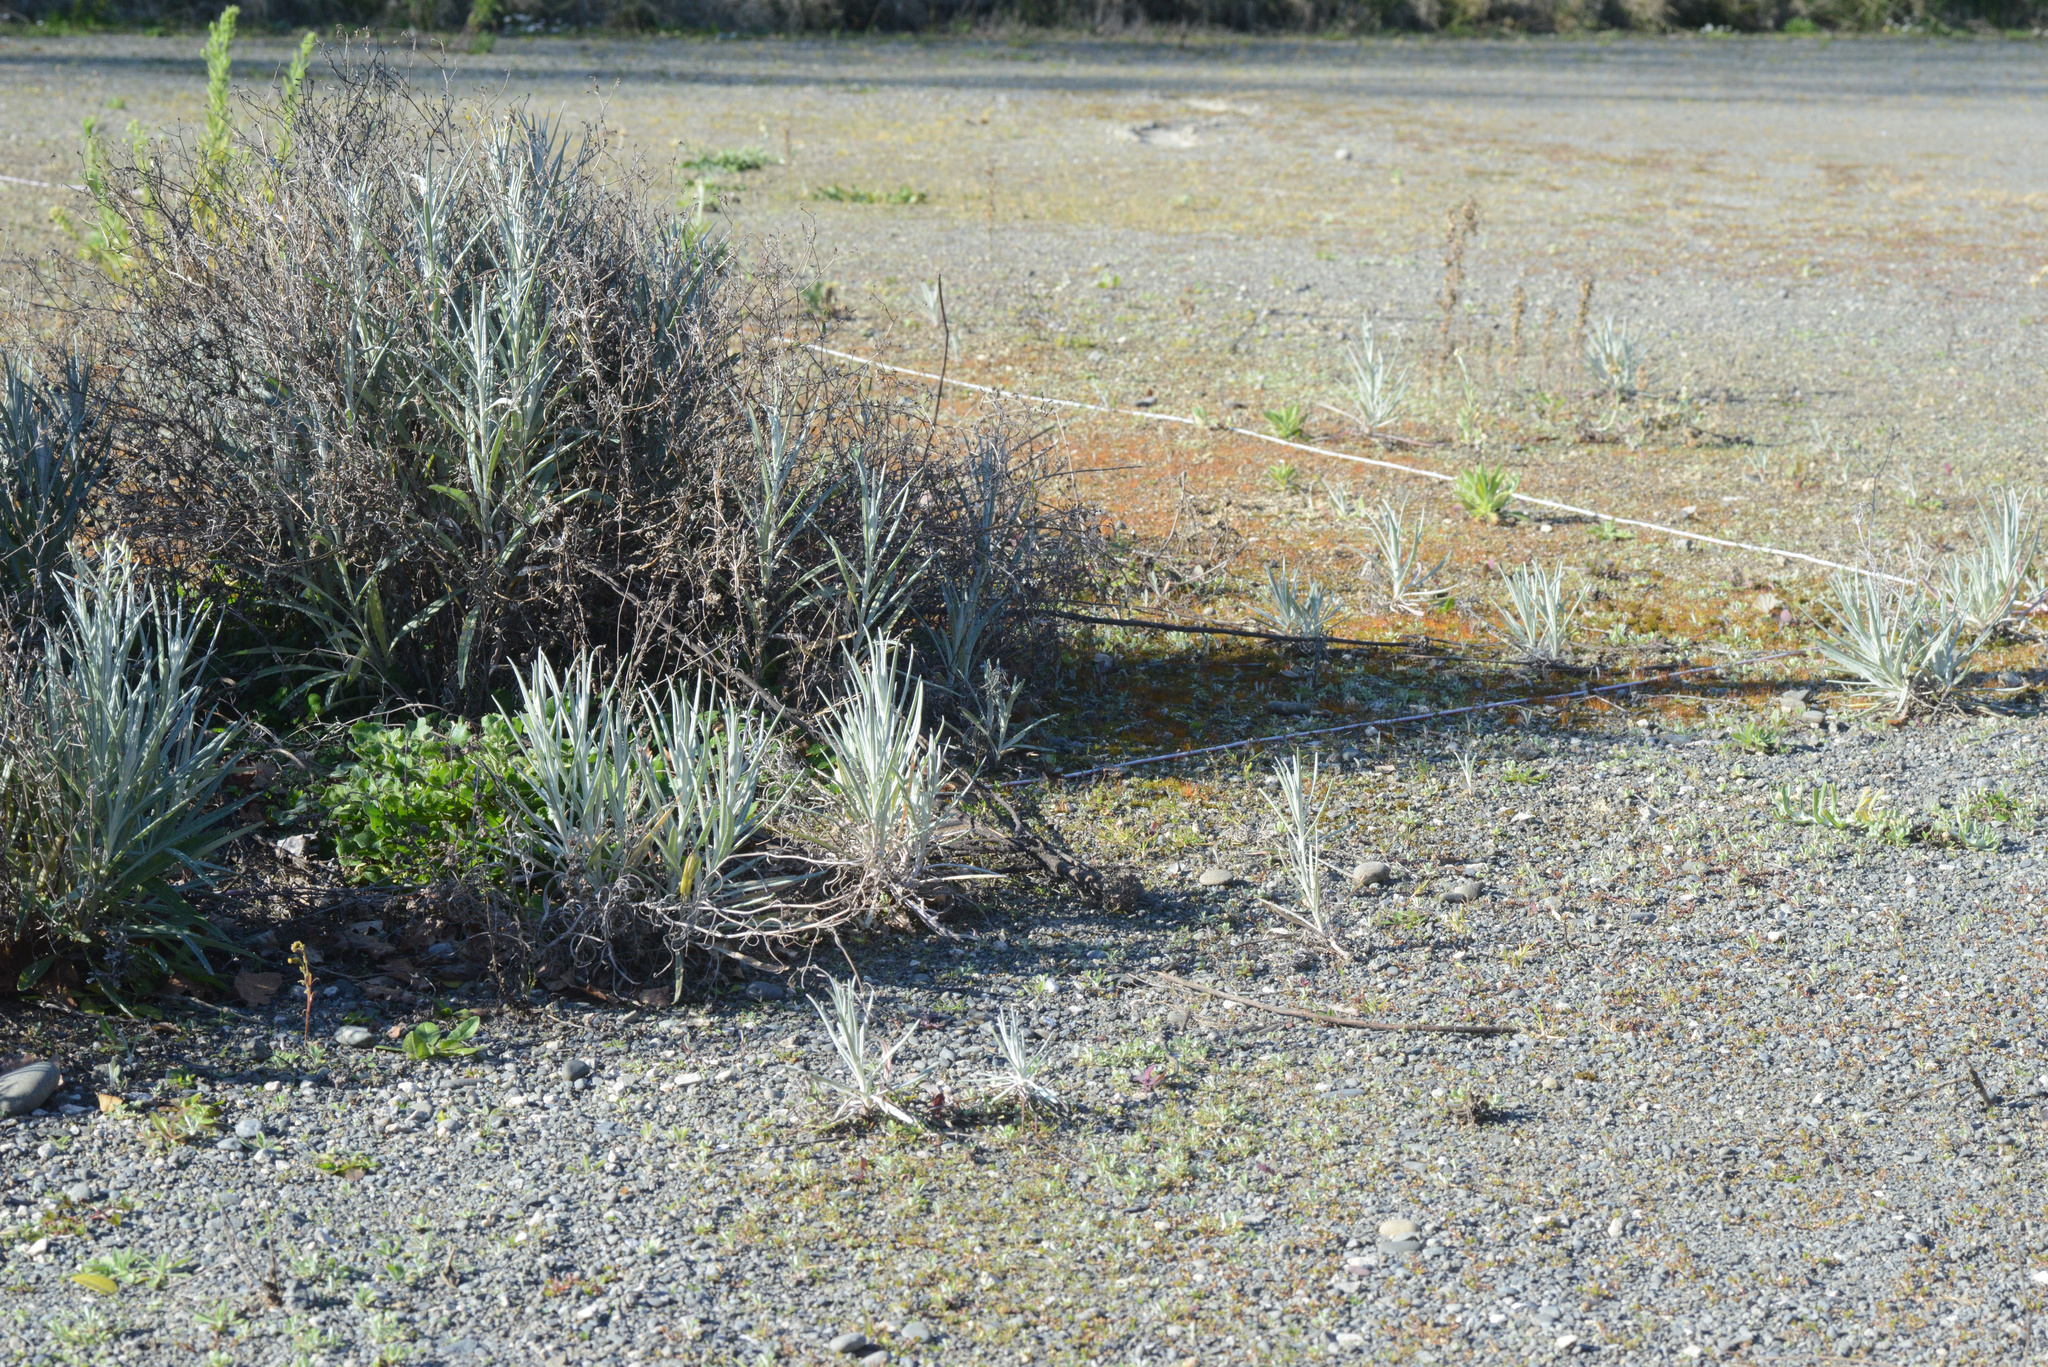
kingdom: Plantae
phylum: Tracheophyta
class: Magnoliopsida
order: Asterales
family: Asteraceae
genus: Senecio
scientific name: Senecio quadridentatus
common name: Cotton fireweed
